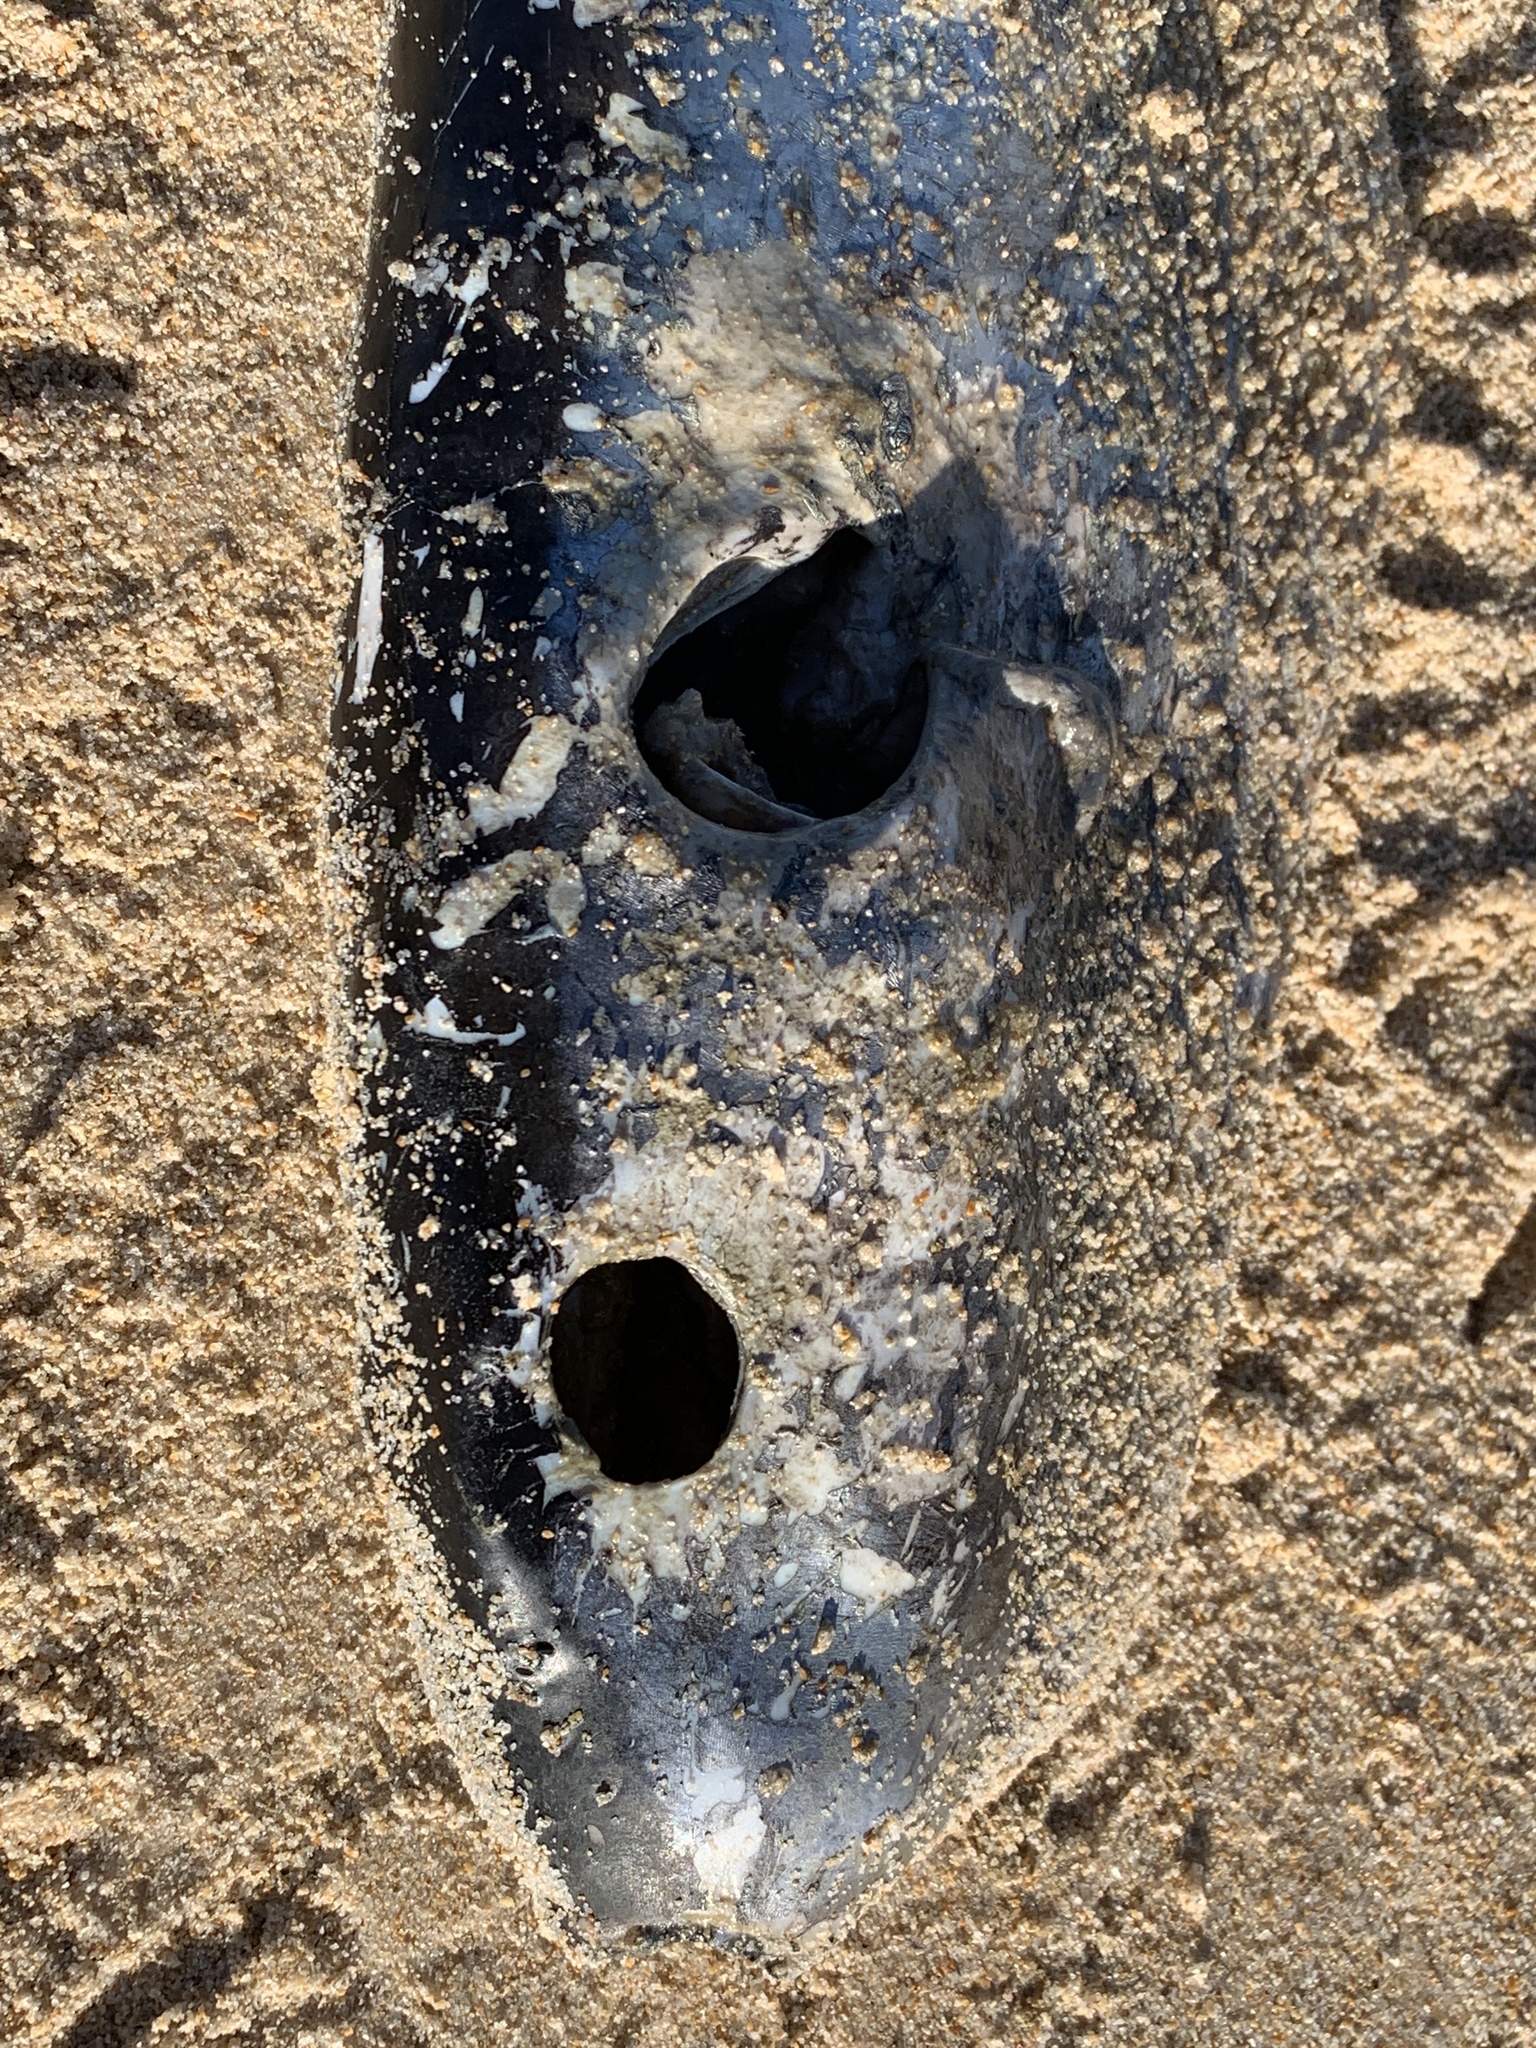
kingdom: Animalia
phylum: Chordata
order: Tetraodontiformes
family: Tetraodontidae
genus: Lagocephalus
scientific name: Lagocephalus lagocephalus
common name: Oceanic puffer
